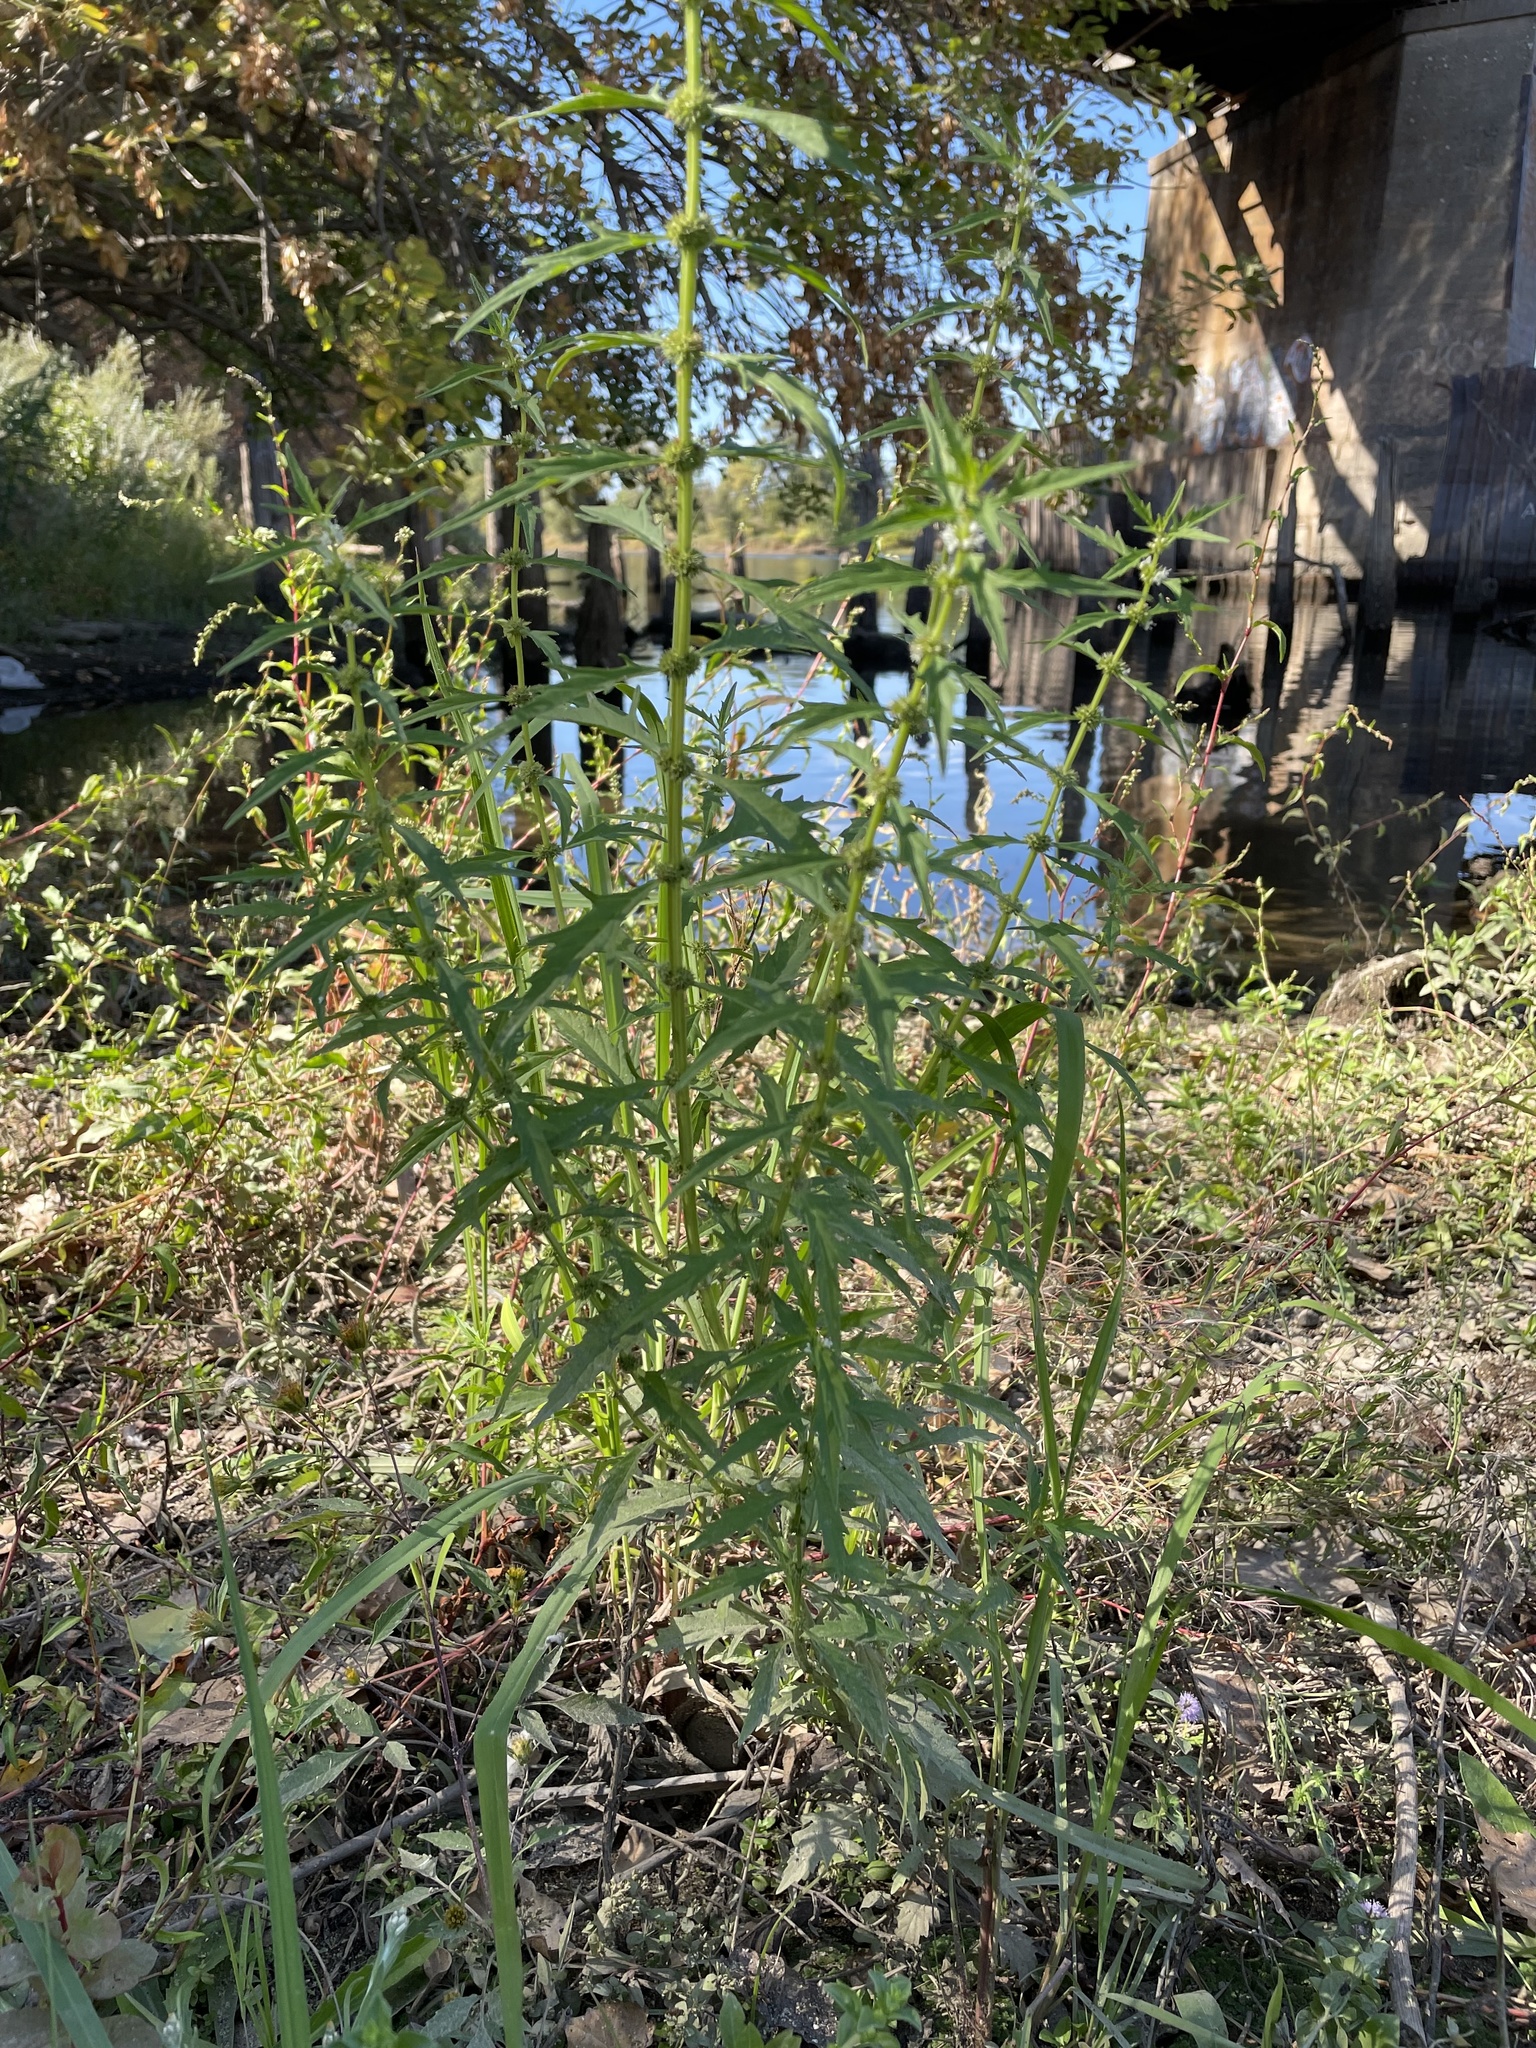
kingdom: Plantae
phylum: Tracheophyta
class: Magnoliopsida
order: Lamiales
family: Lamiaceae
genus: Lycopus
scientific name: Lycopus americanus
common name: American bugleweed
